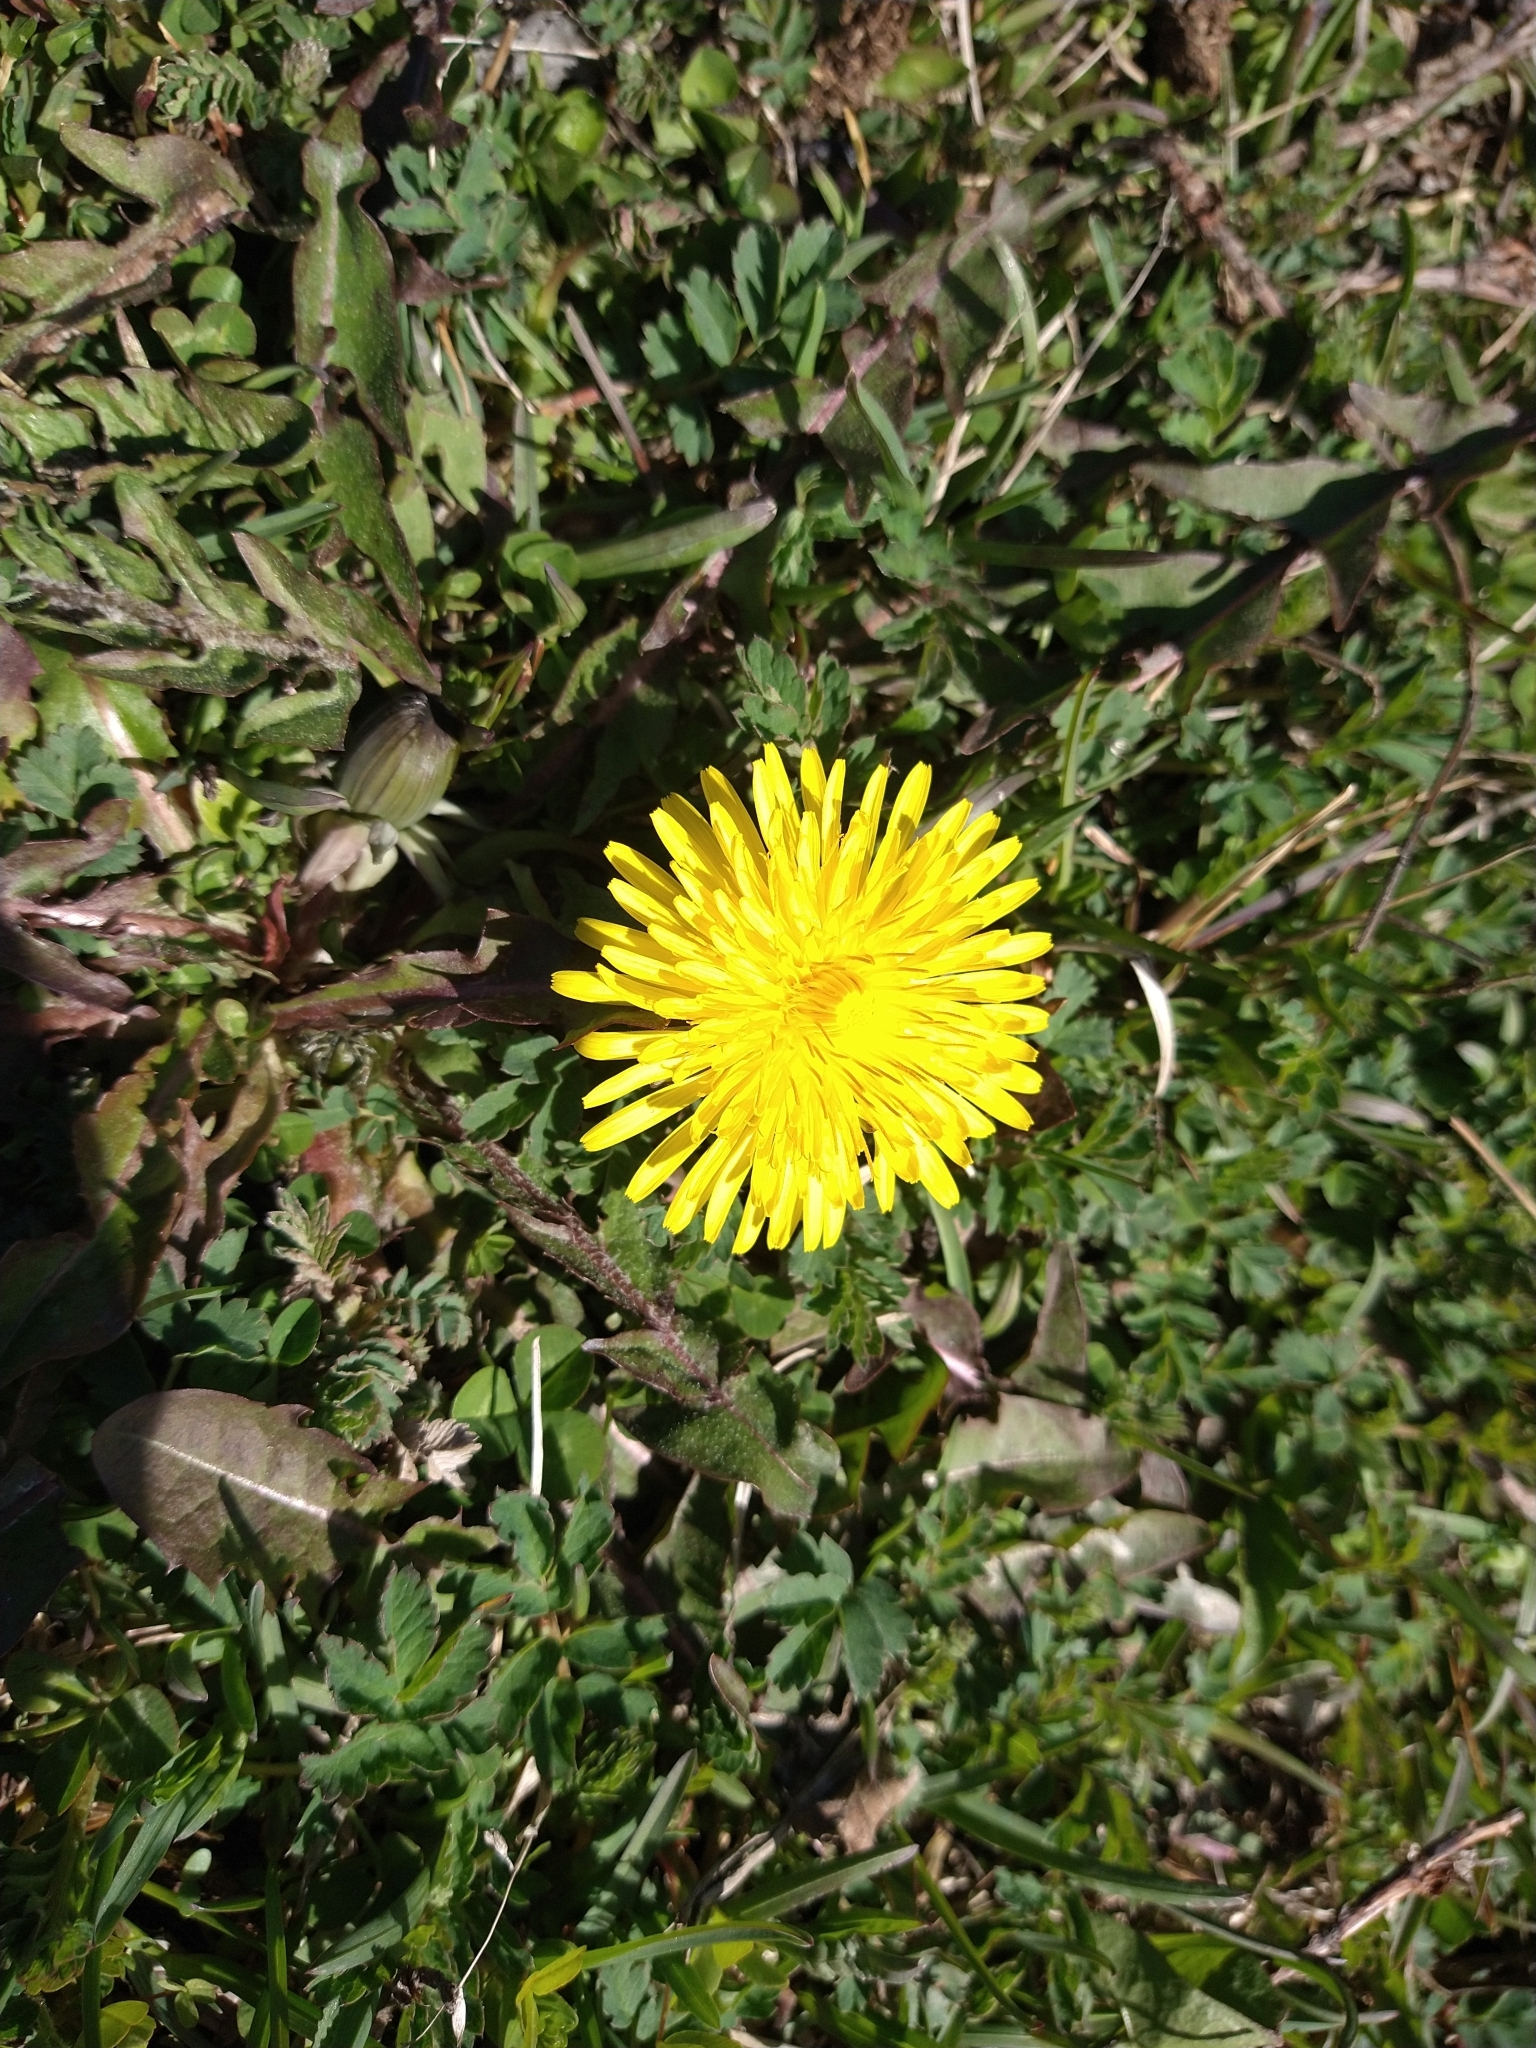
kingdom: Plantae
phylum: Tracheophyta
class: Magnoliopsida
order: Asterales
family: Asteraceae
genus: Taraxacum
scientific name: Taraxacum officinale
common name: Common dandelion
